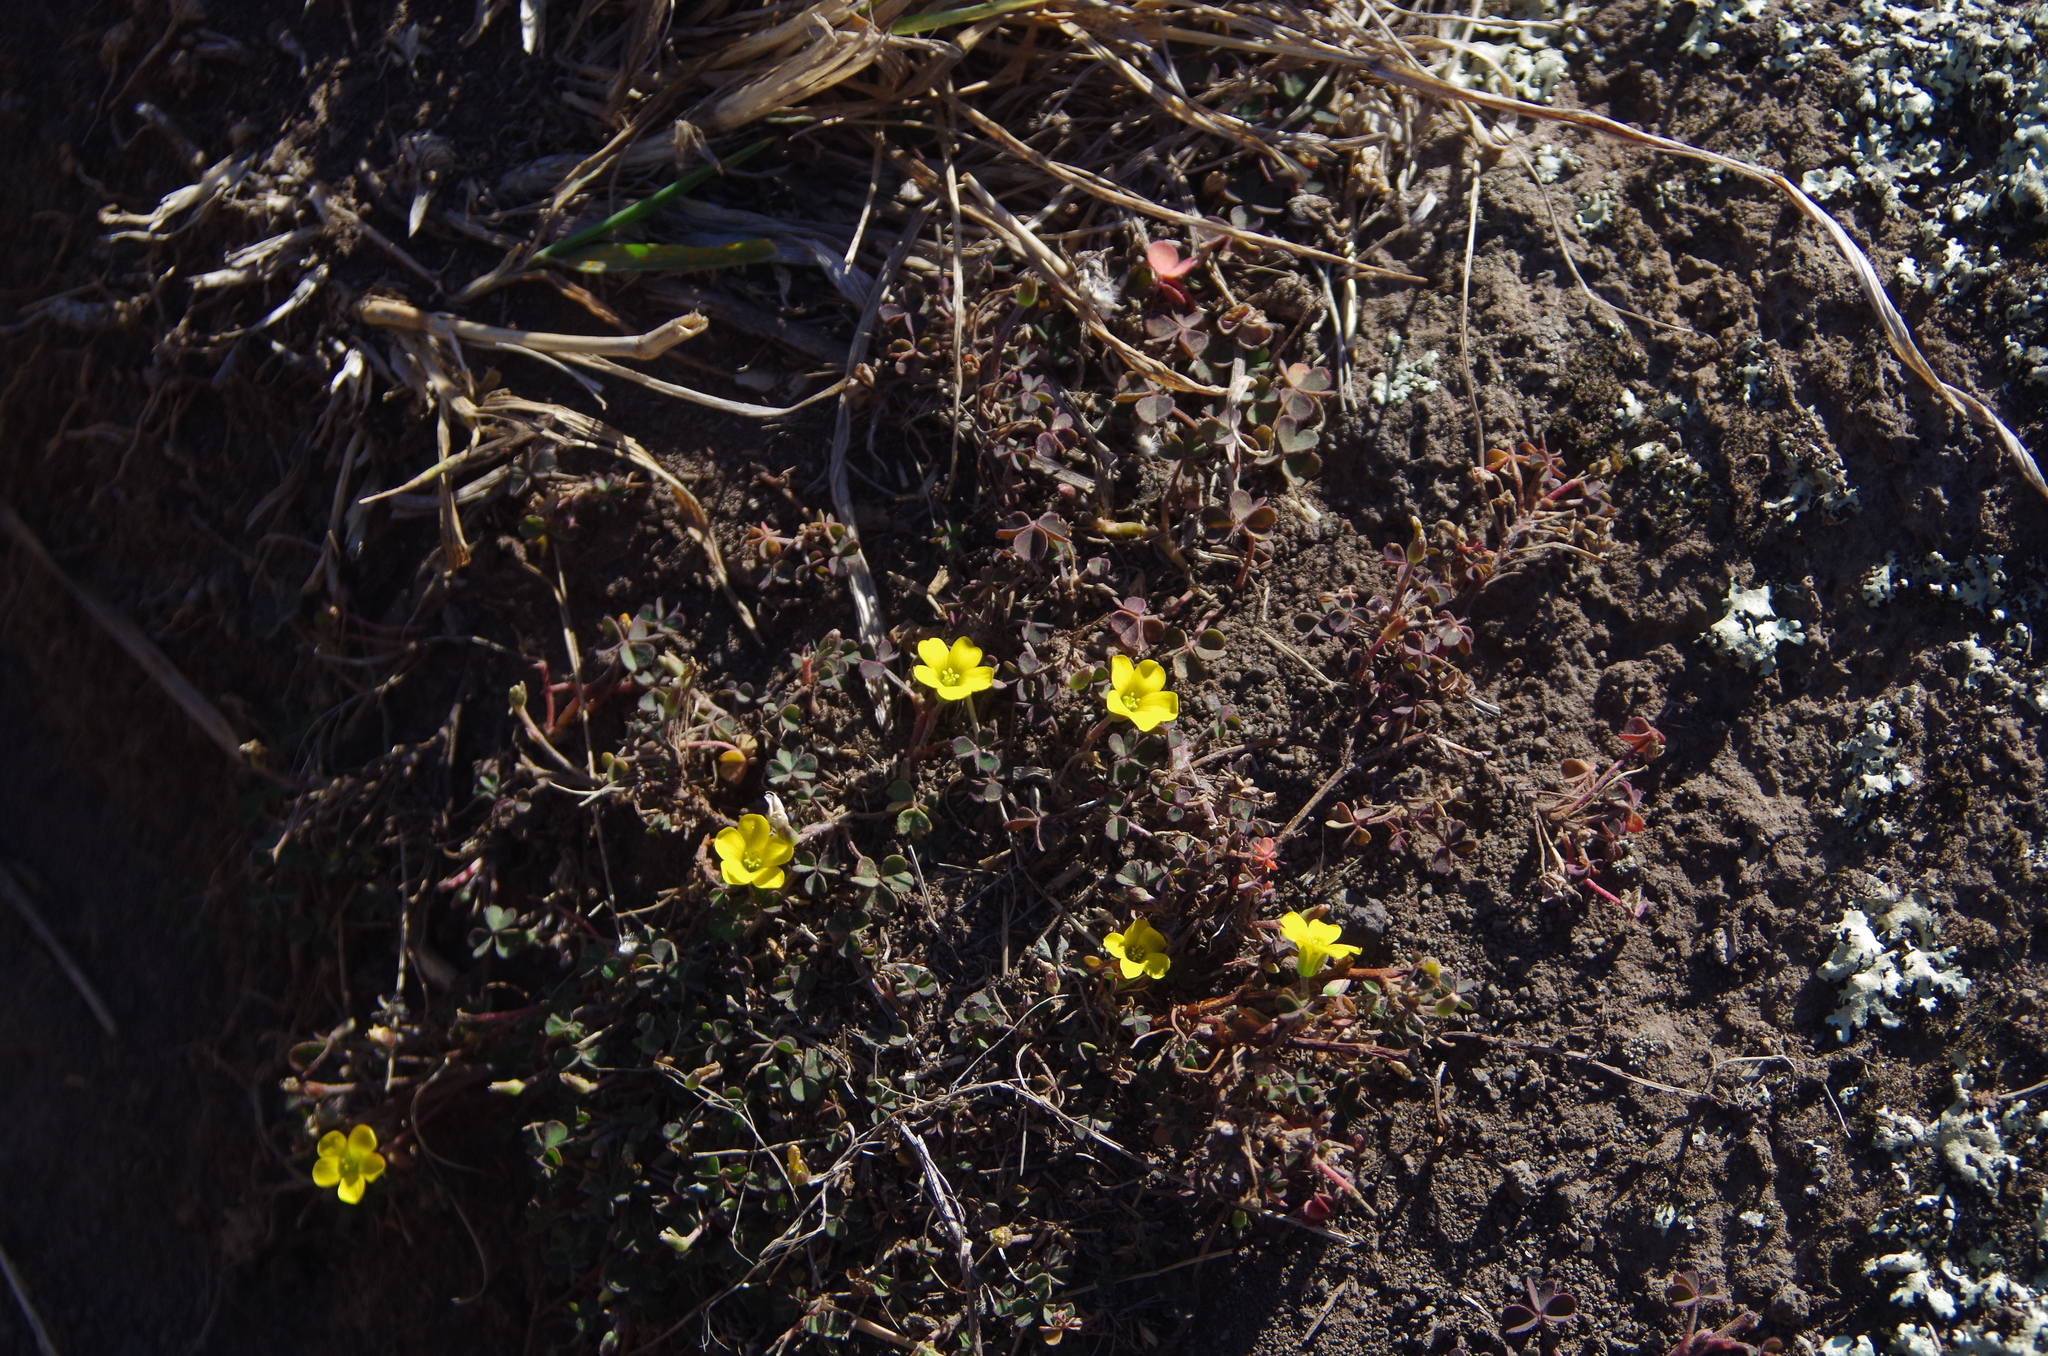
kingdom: Plantae
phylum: Tracheophyta
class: Magnoliopsida
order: Oxalidales
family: Oxalidaceae
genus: Oxalis
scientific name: Oxalis exilis
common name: Least yellow-sorrel
